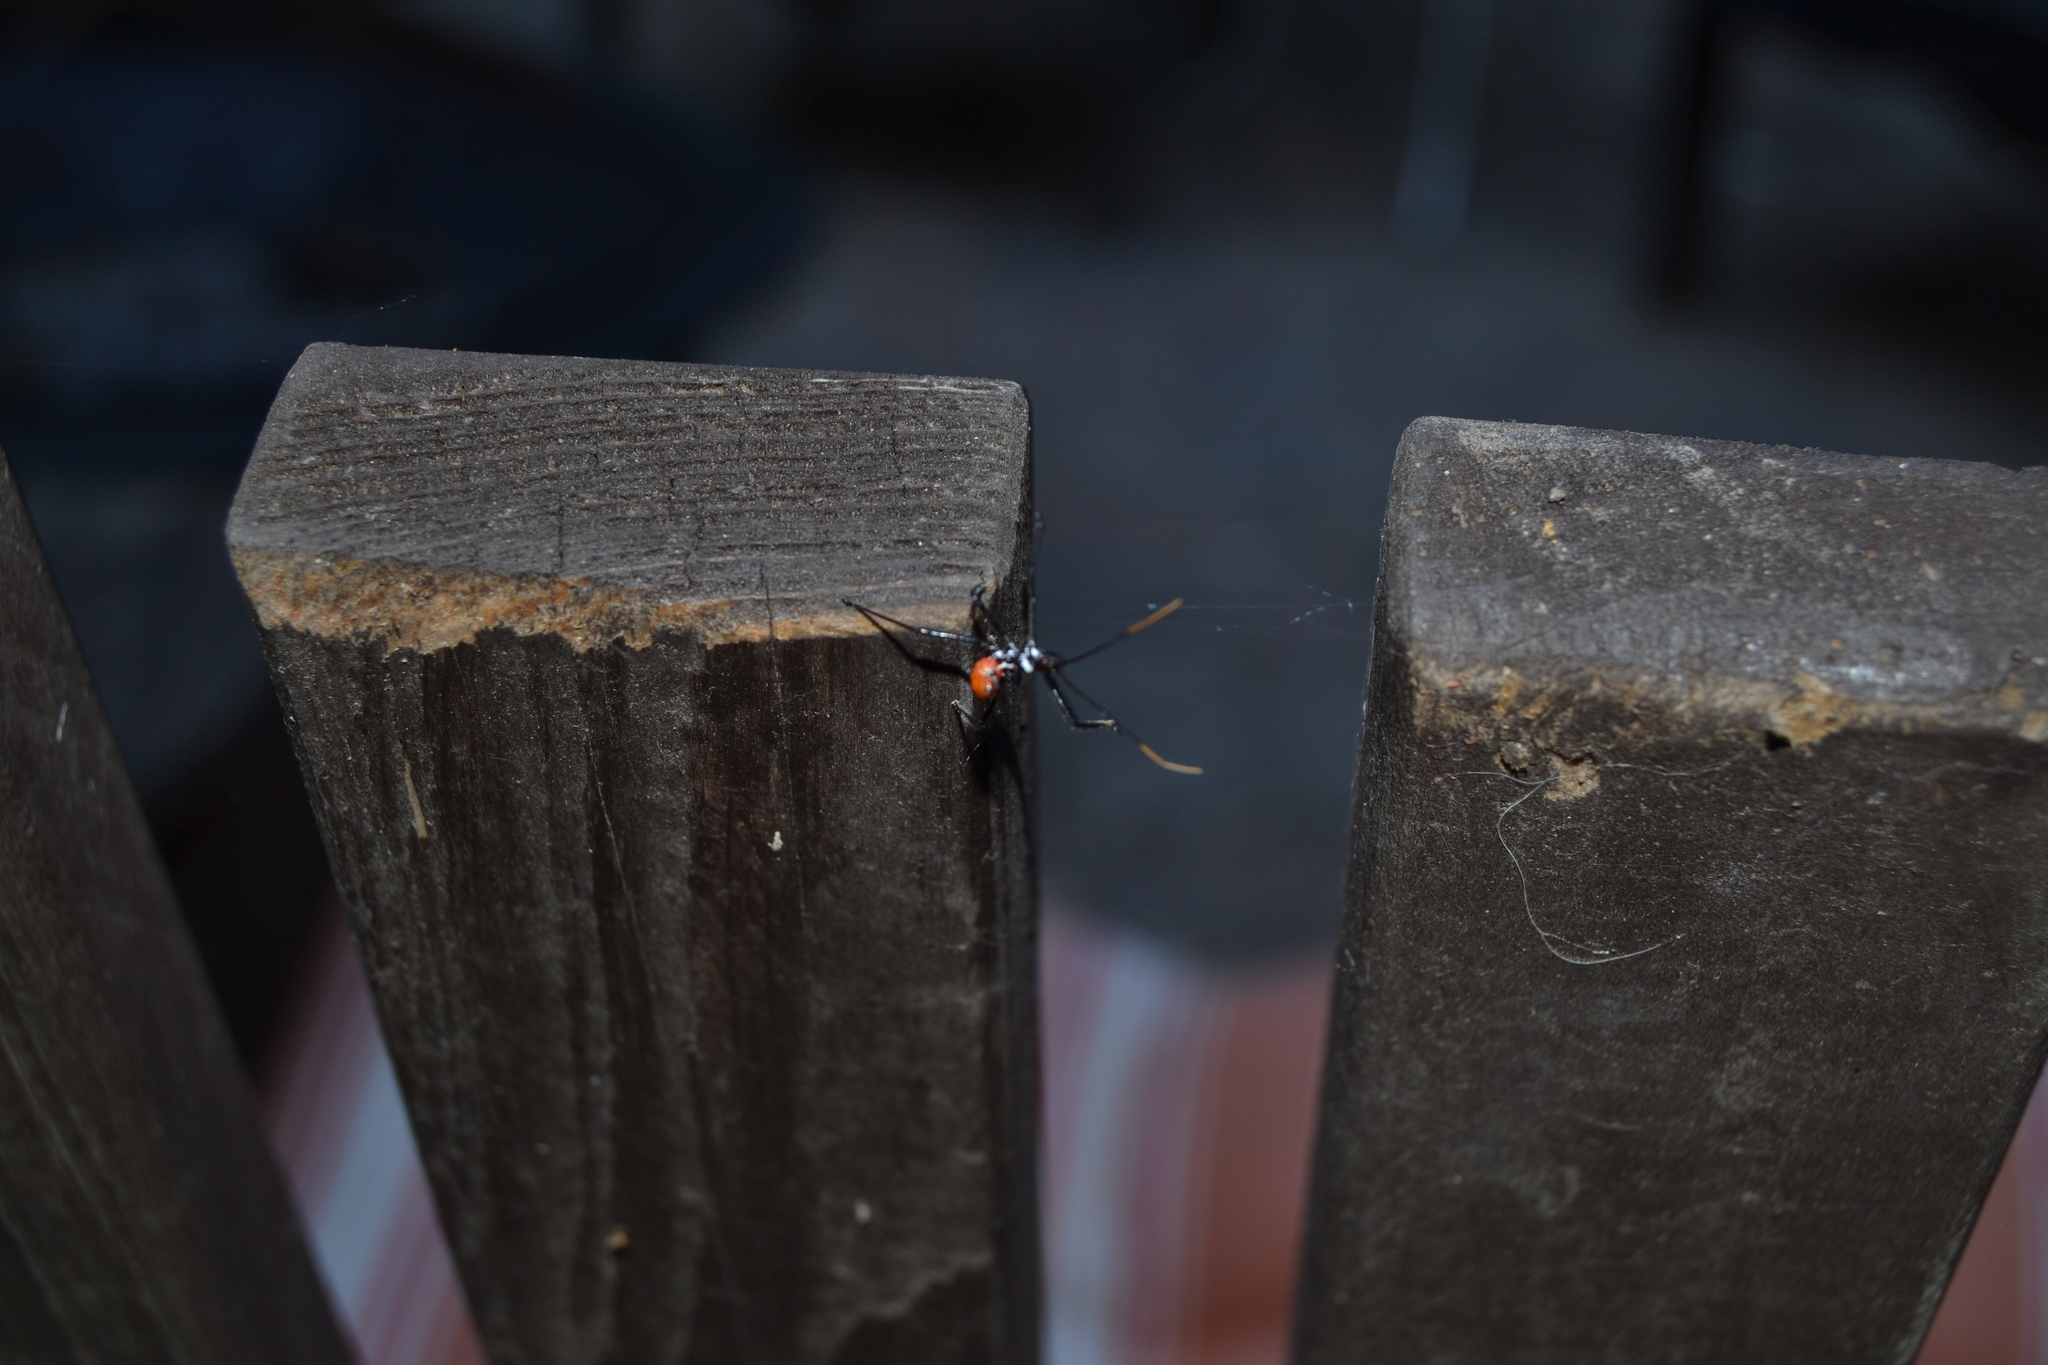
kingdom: Animalia
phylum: Arthropoda
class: Insecta
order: Hemiptera
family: Reduviidae
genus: Arilus
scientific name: Arilus cristatus
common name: North american wheel bug
